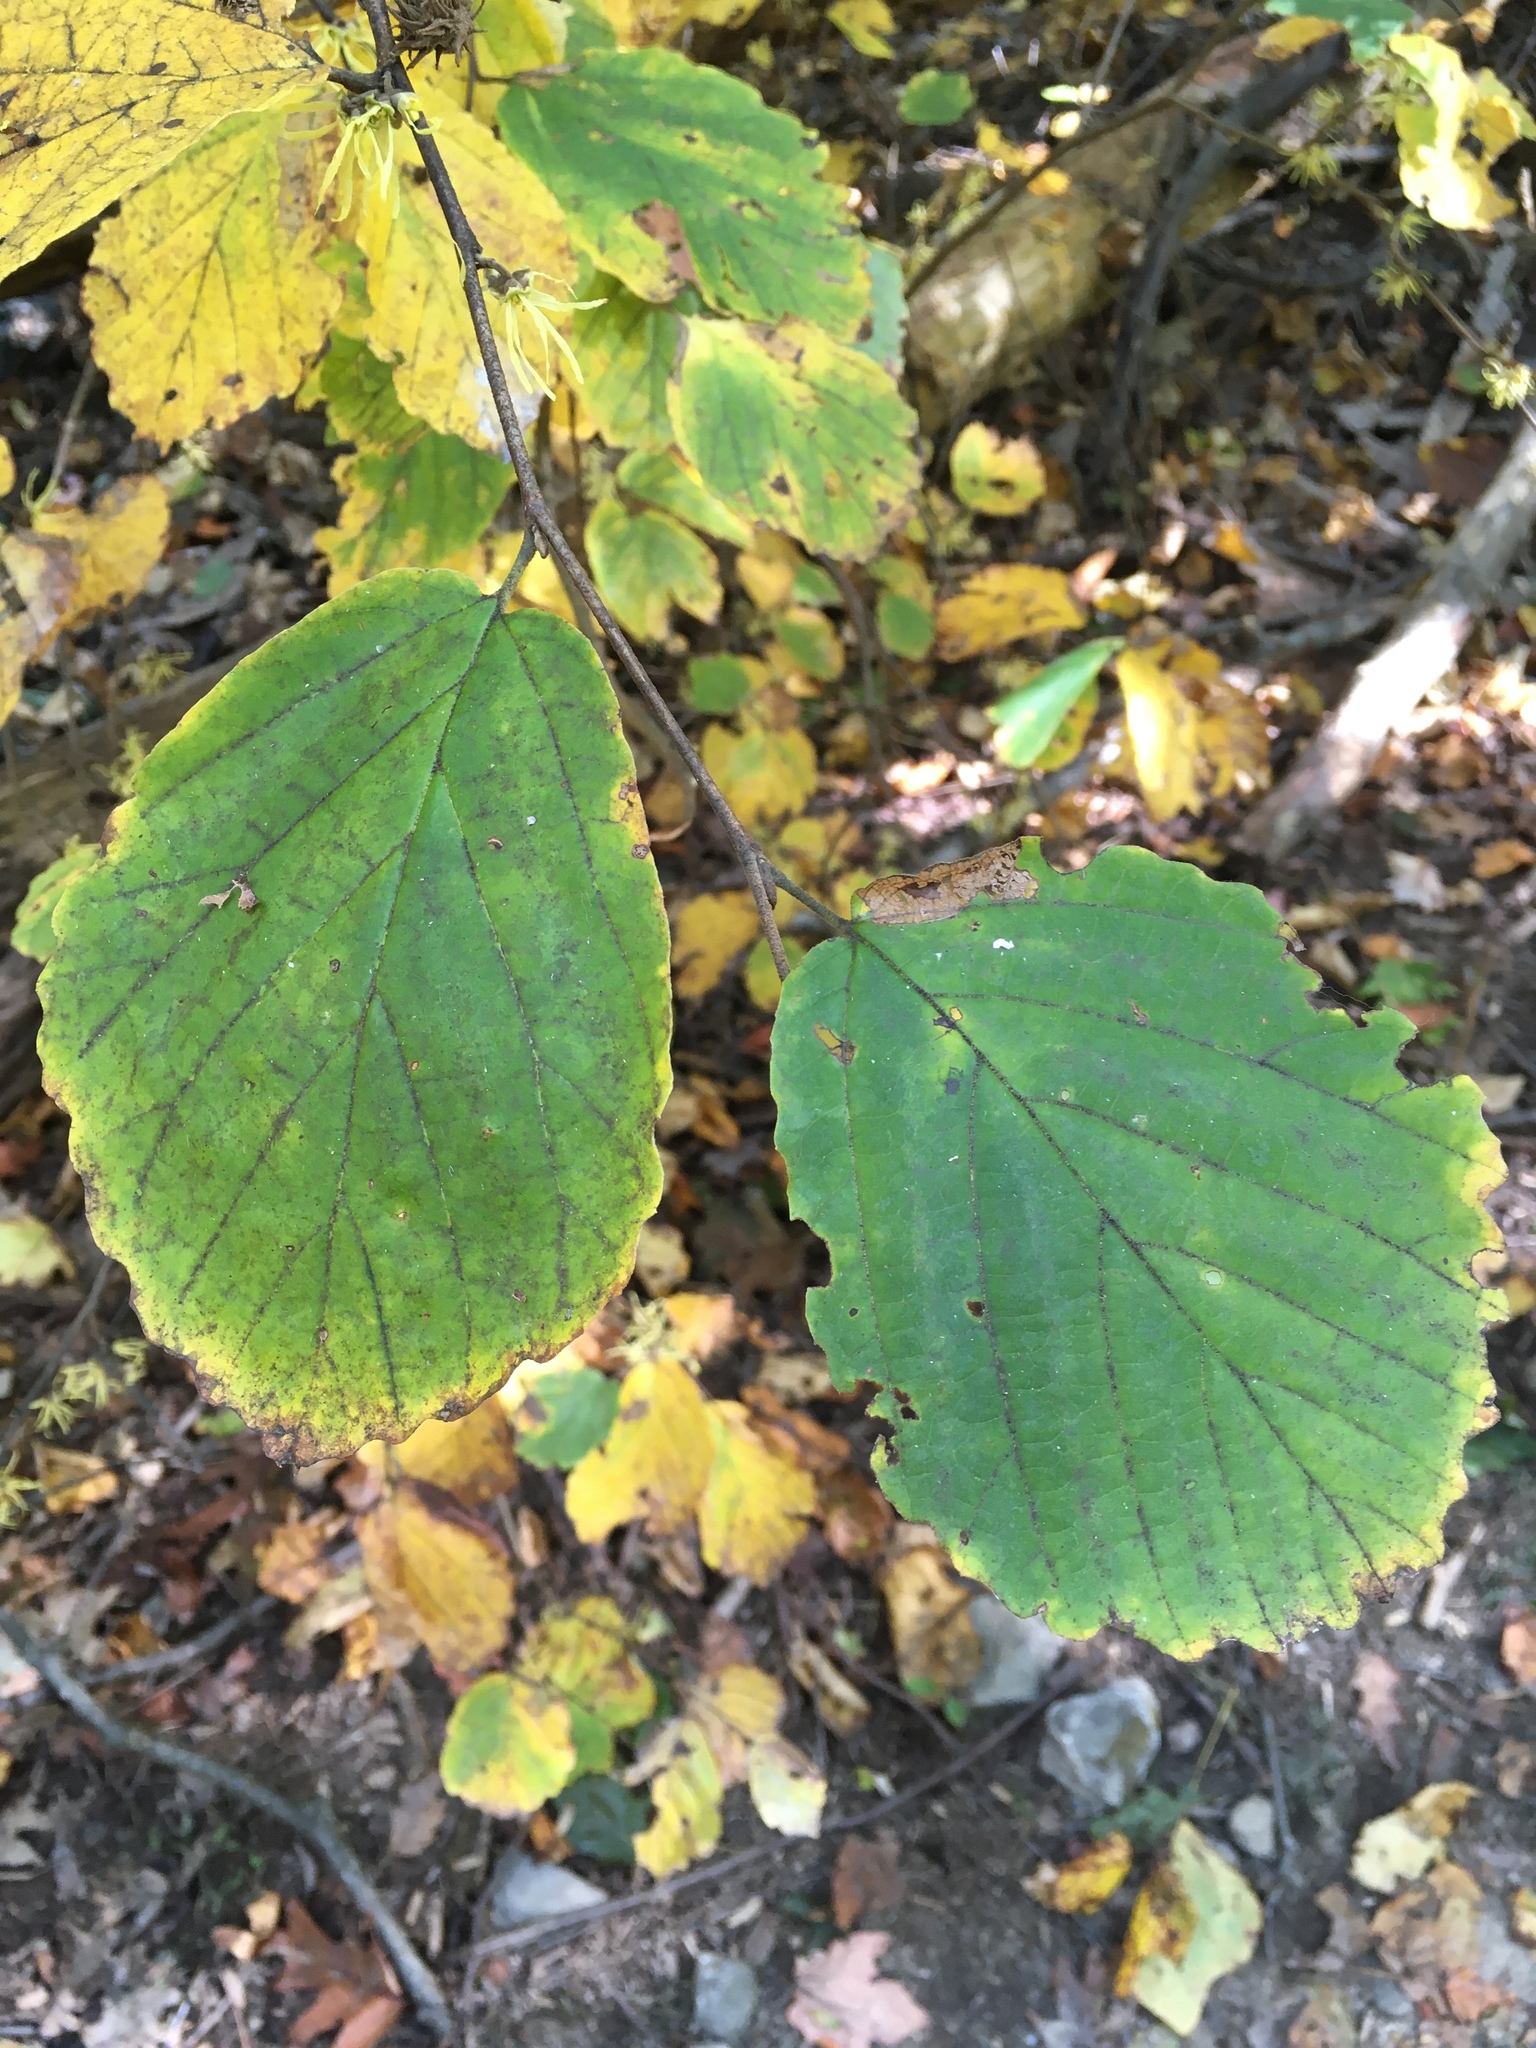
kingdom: Plantae
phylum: Tracheophyta
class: Magnoliopsida
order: Saxifragales
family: Hamamelidaceae
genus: Hamamelis
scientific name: Hamamelis virginiana
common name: Witch-hazel
